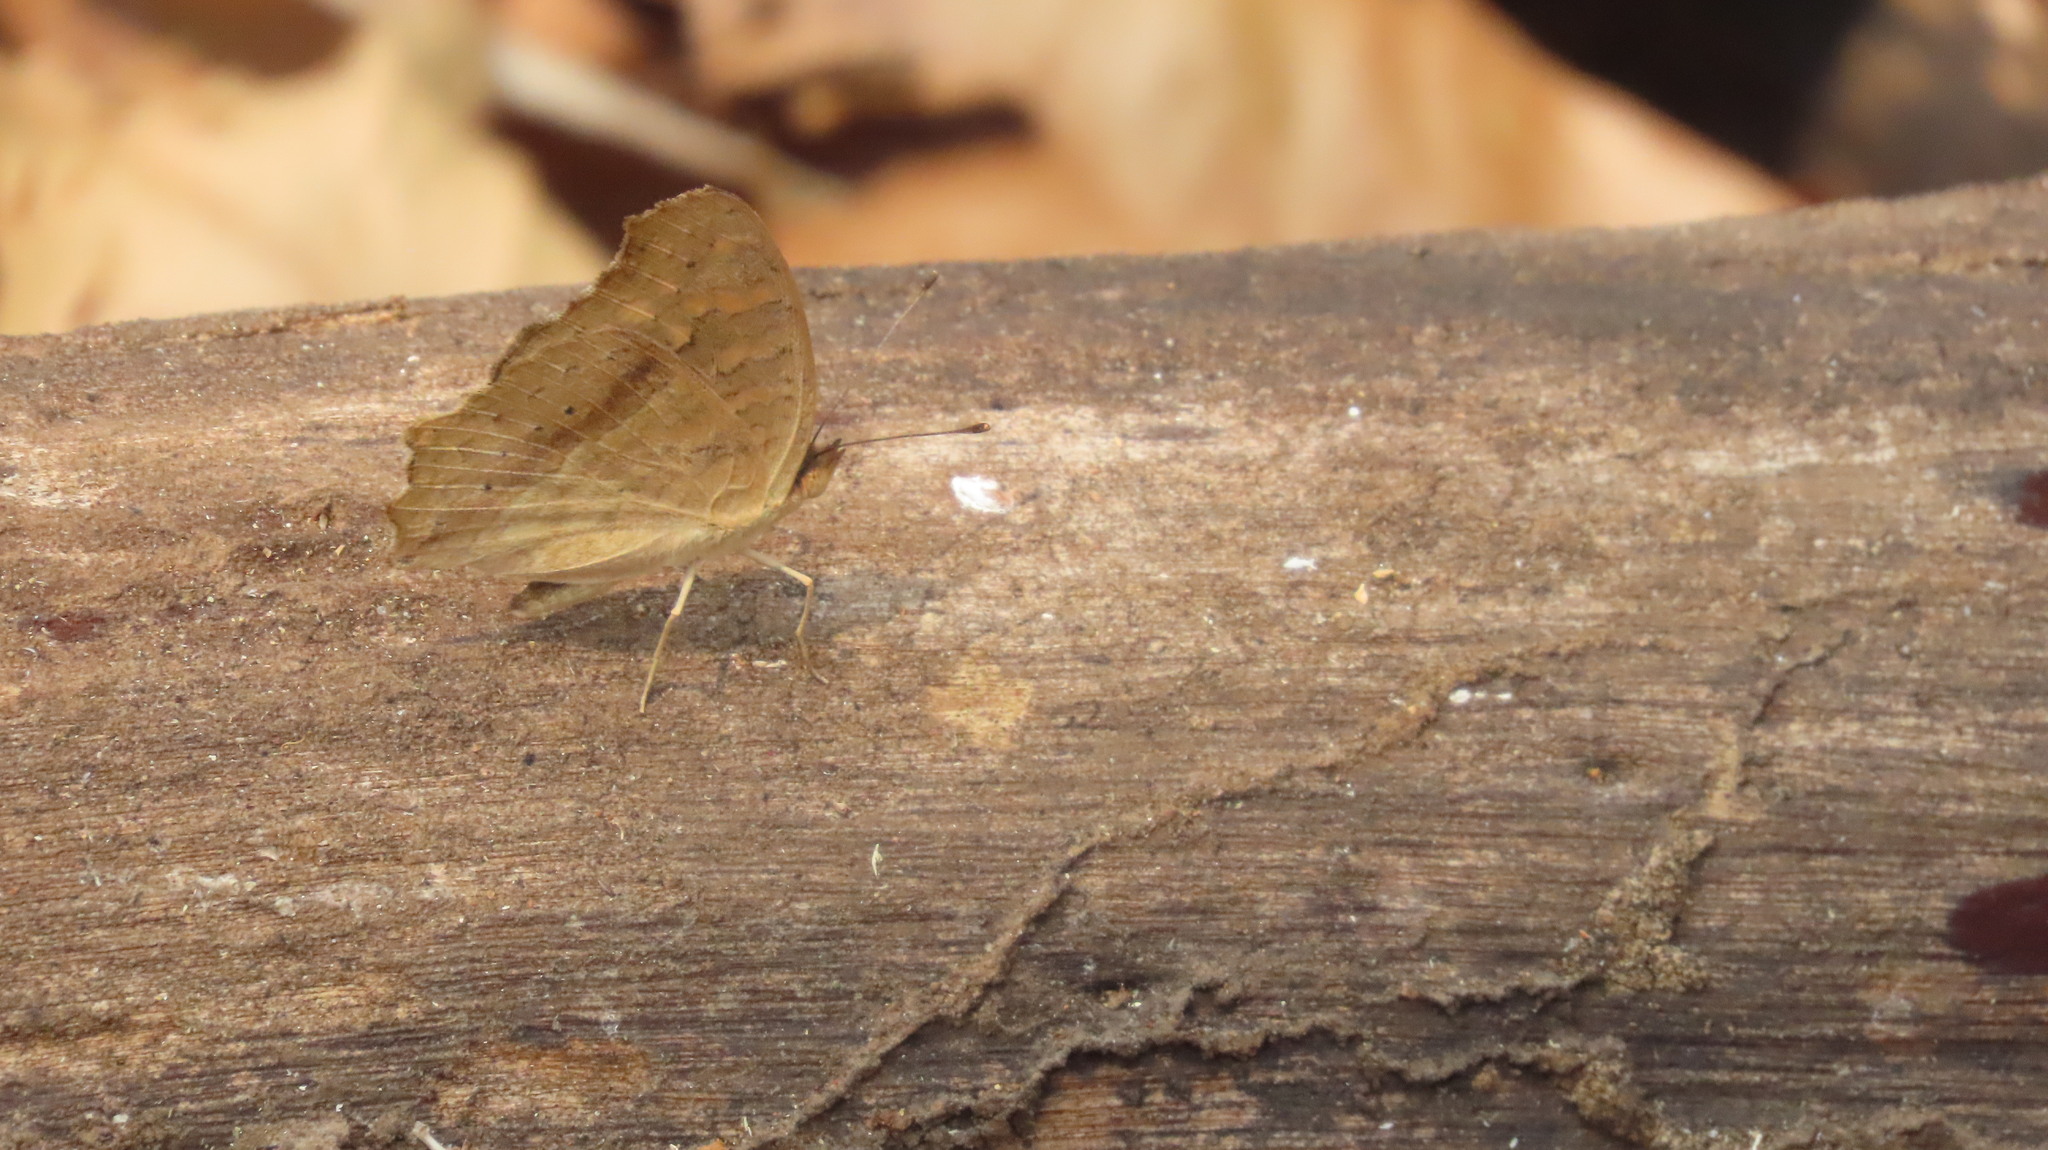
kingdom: Animalia
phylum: Arthropoda
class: Insecta
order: Lepidoptera
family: Nymphalidae
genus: Junonia
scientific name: Junonia lemonias
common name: Lemon pansy
